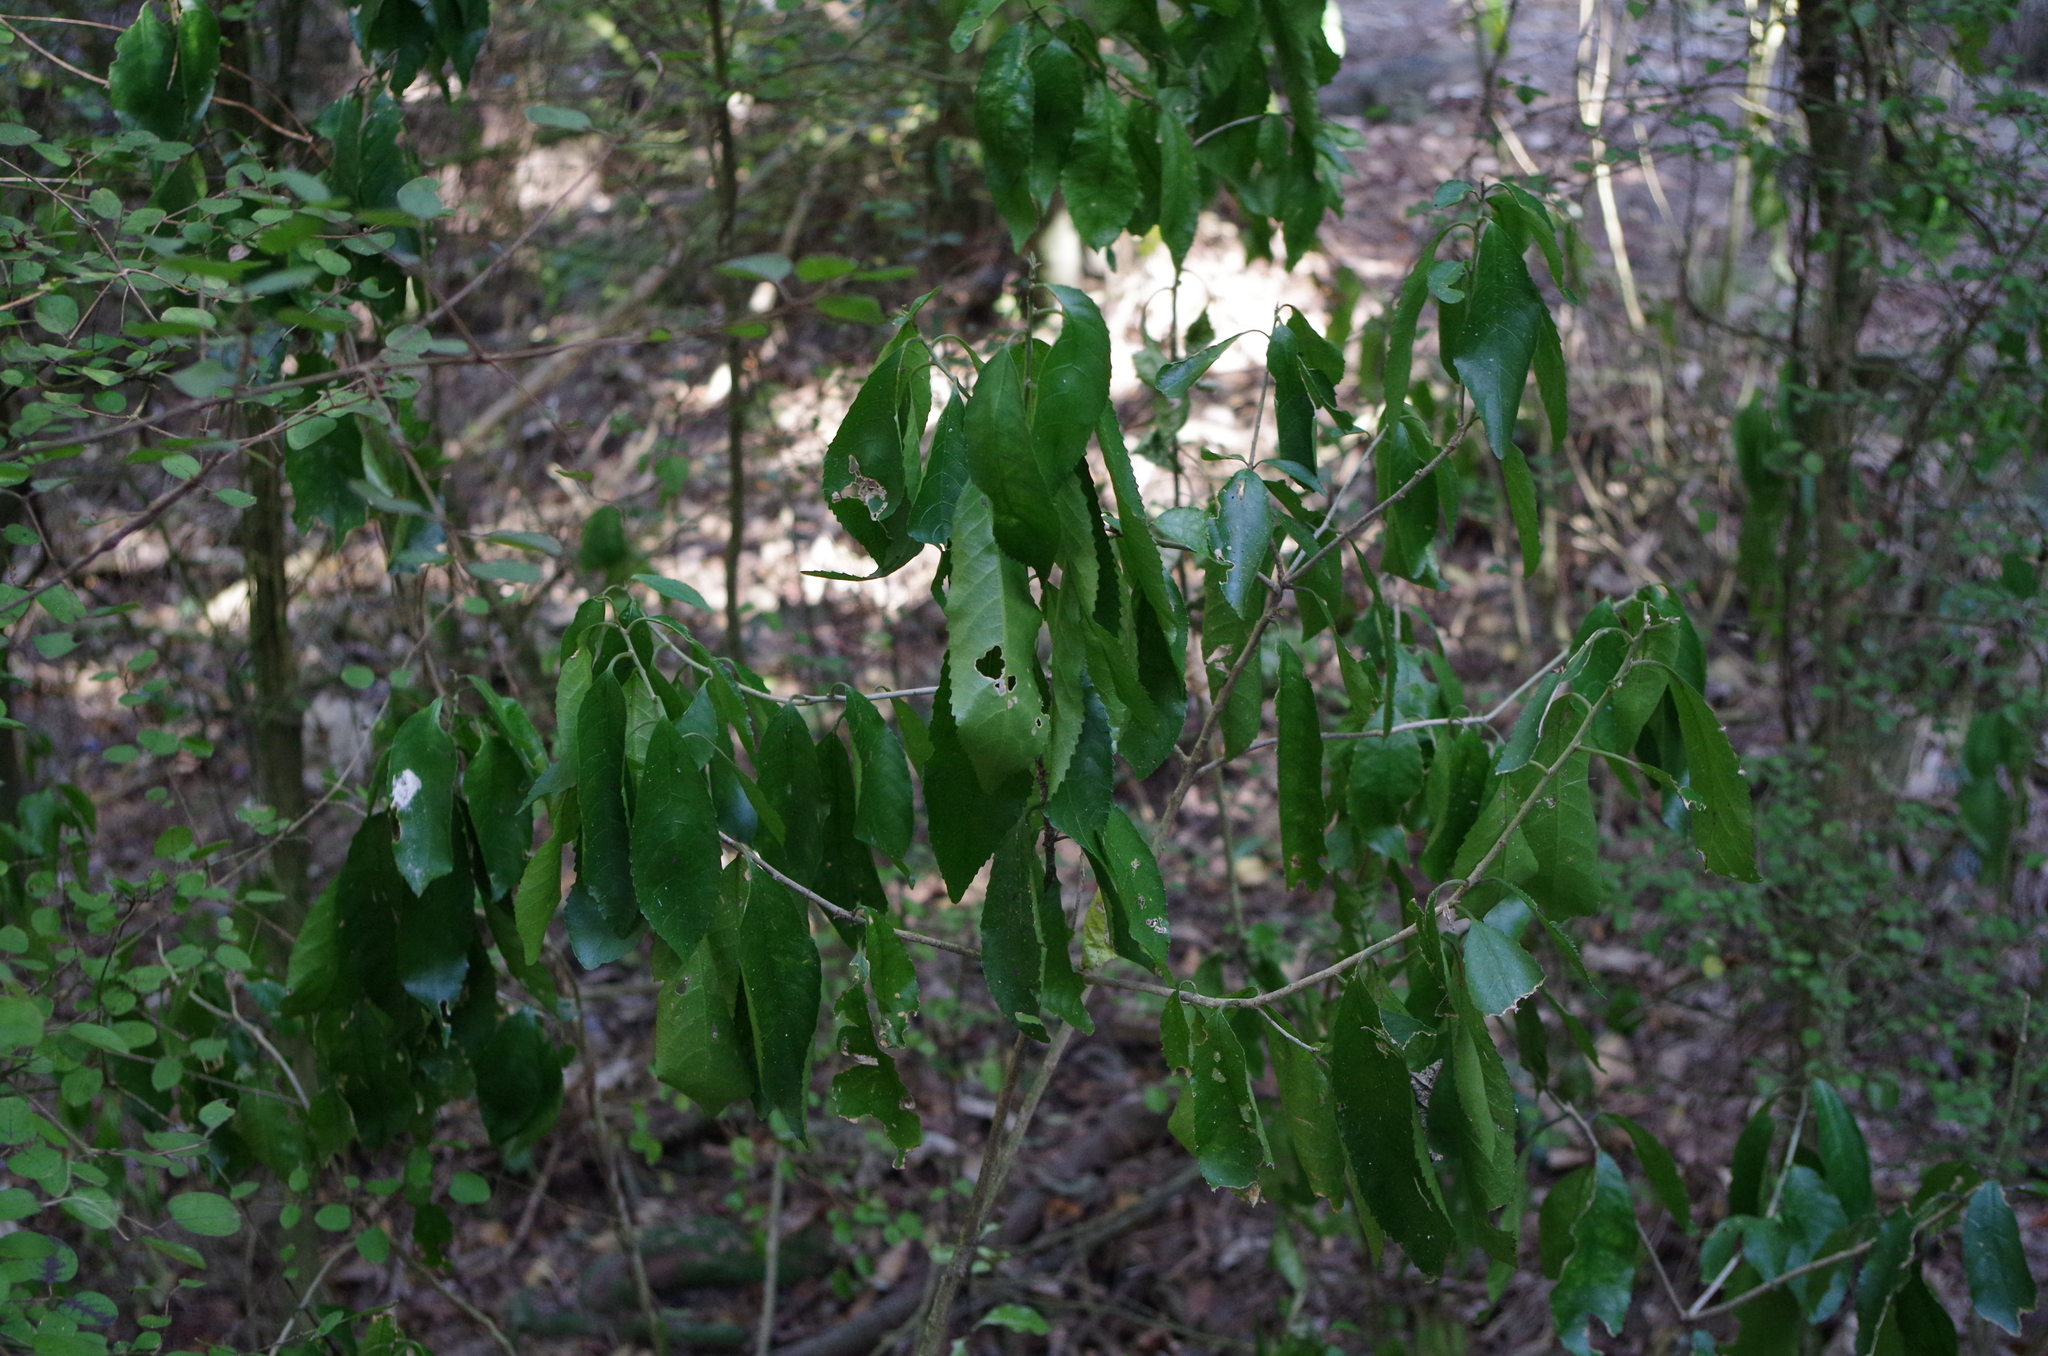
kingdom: Plantae
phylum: Tracheophyta
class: Magnoliopsida
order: Malpighiales
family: Violaceae
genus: Melicytus
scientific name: Melicytus ramiflorus
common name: Mahoe
